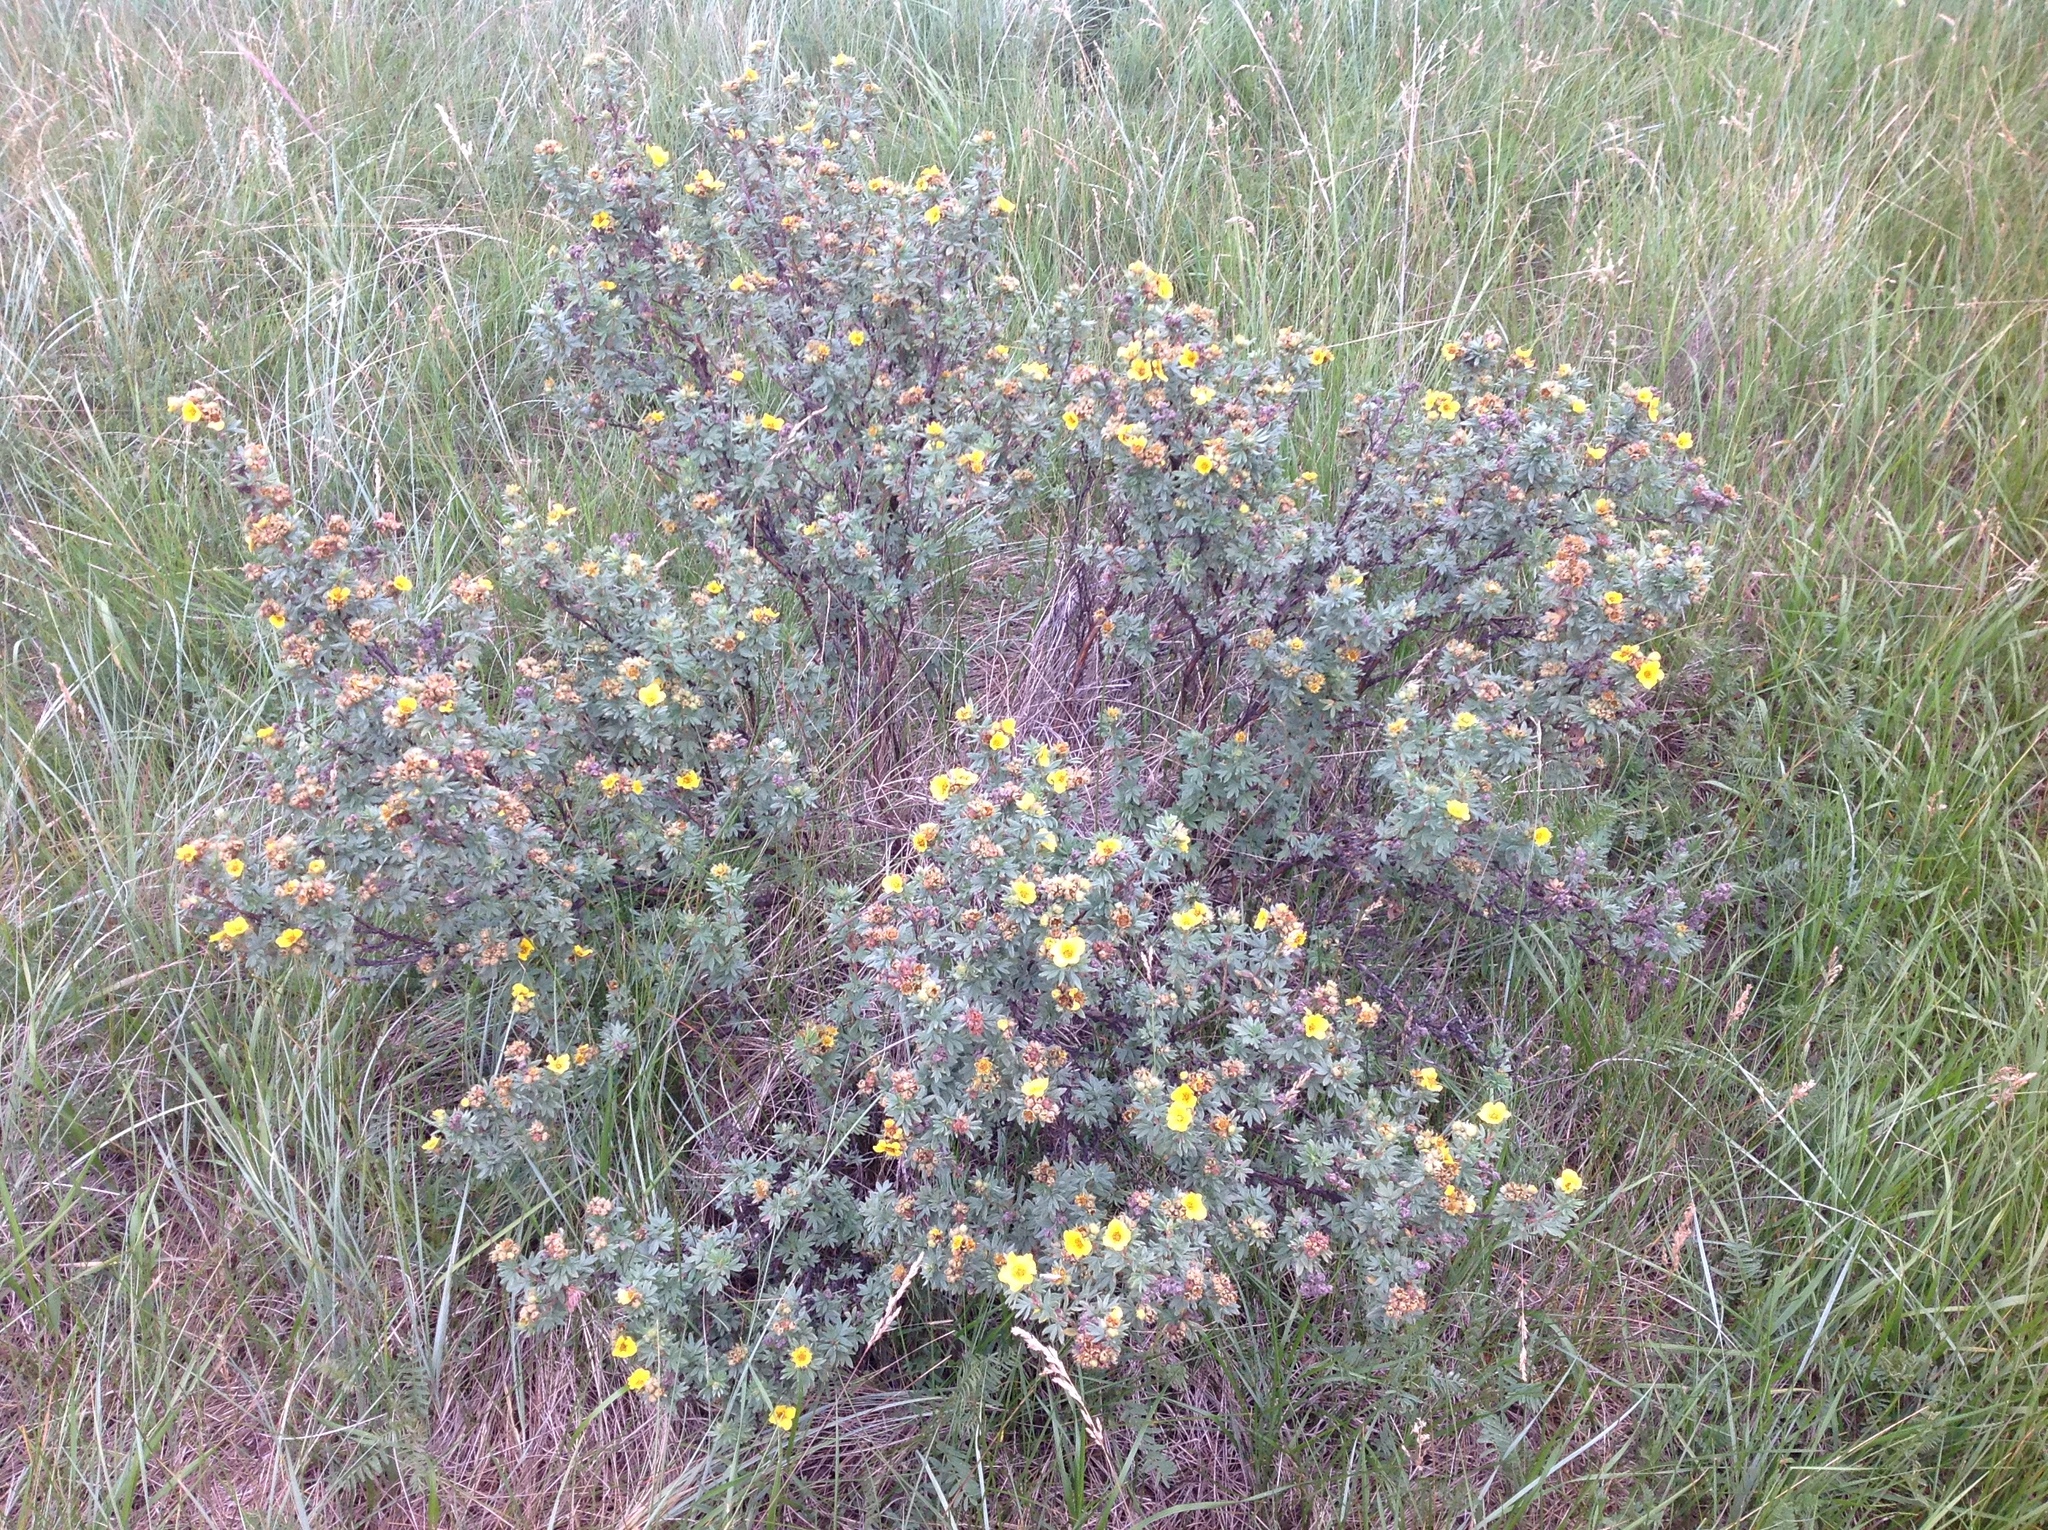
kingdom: Plantae
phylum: Tracheophyta
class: Magnoliopsida
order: Rosales
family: Rosaceae
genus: Dasiphora
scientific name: Dasiphora fruticosa
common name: Shrubby cinquefoil
